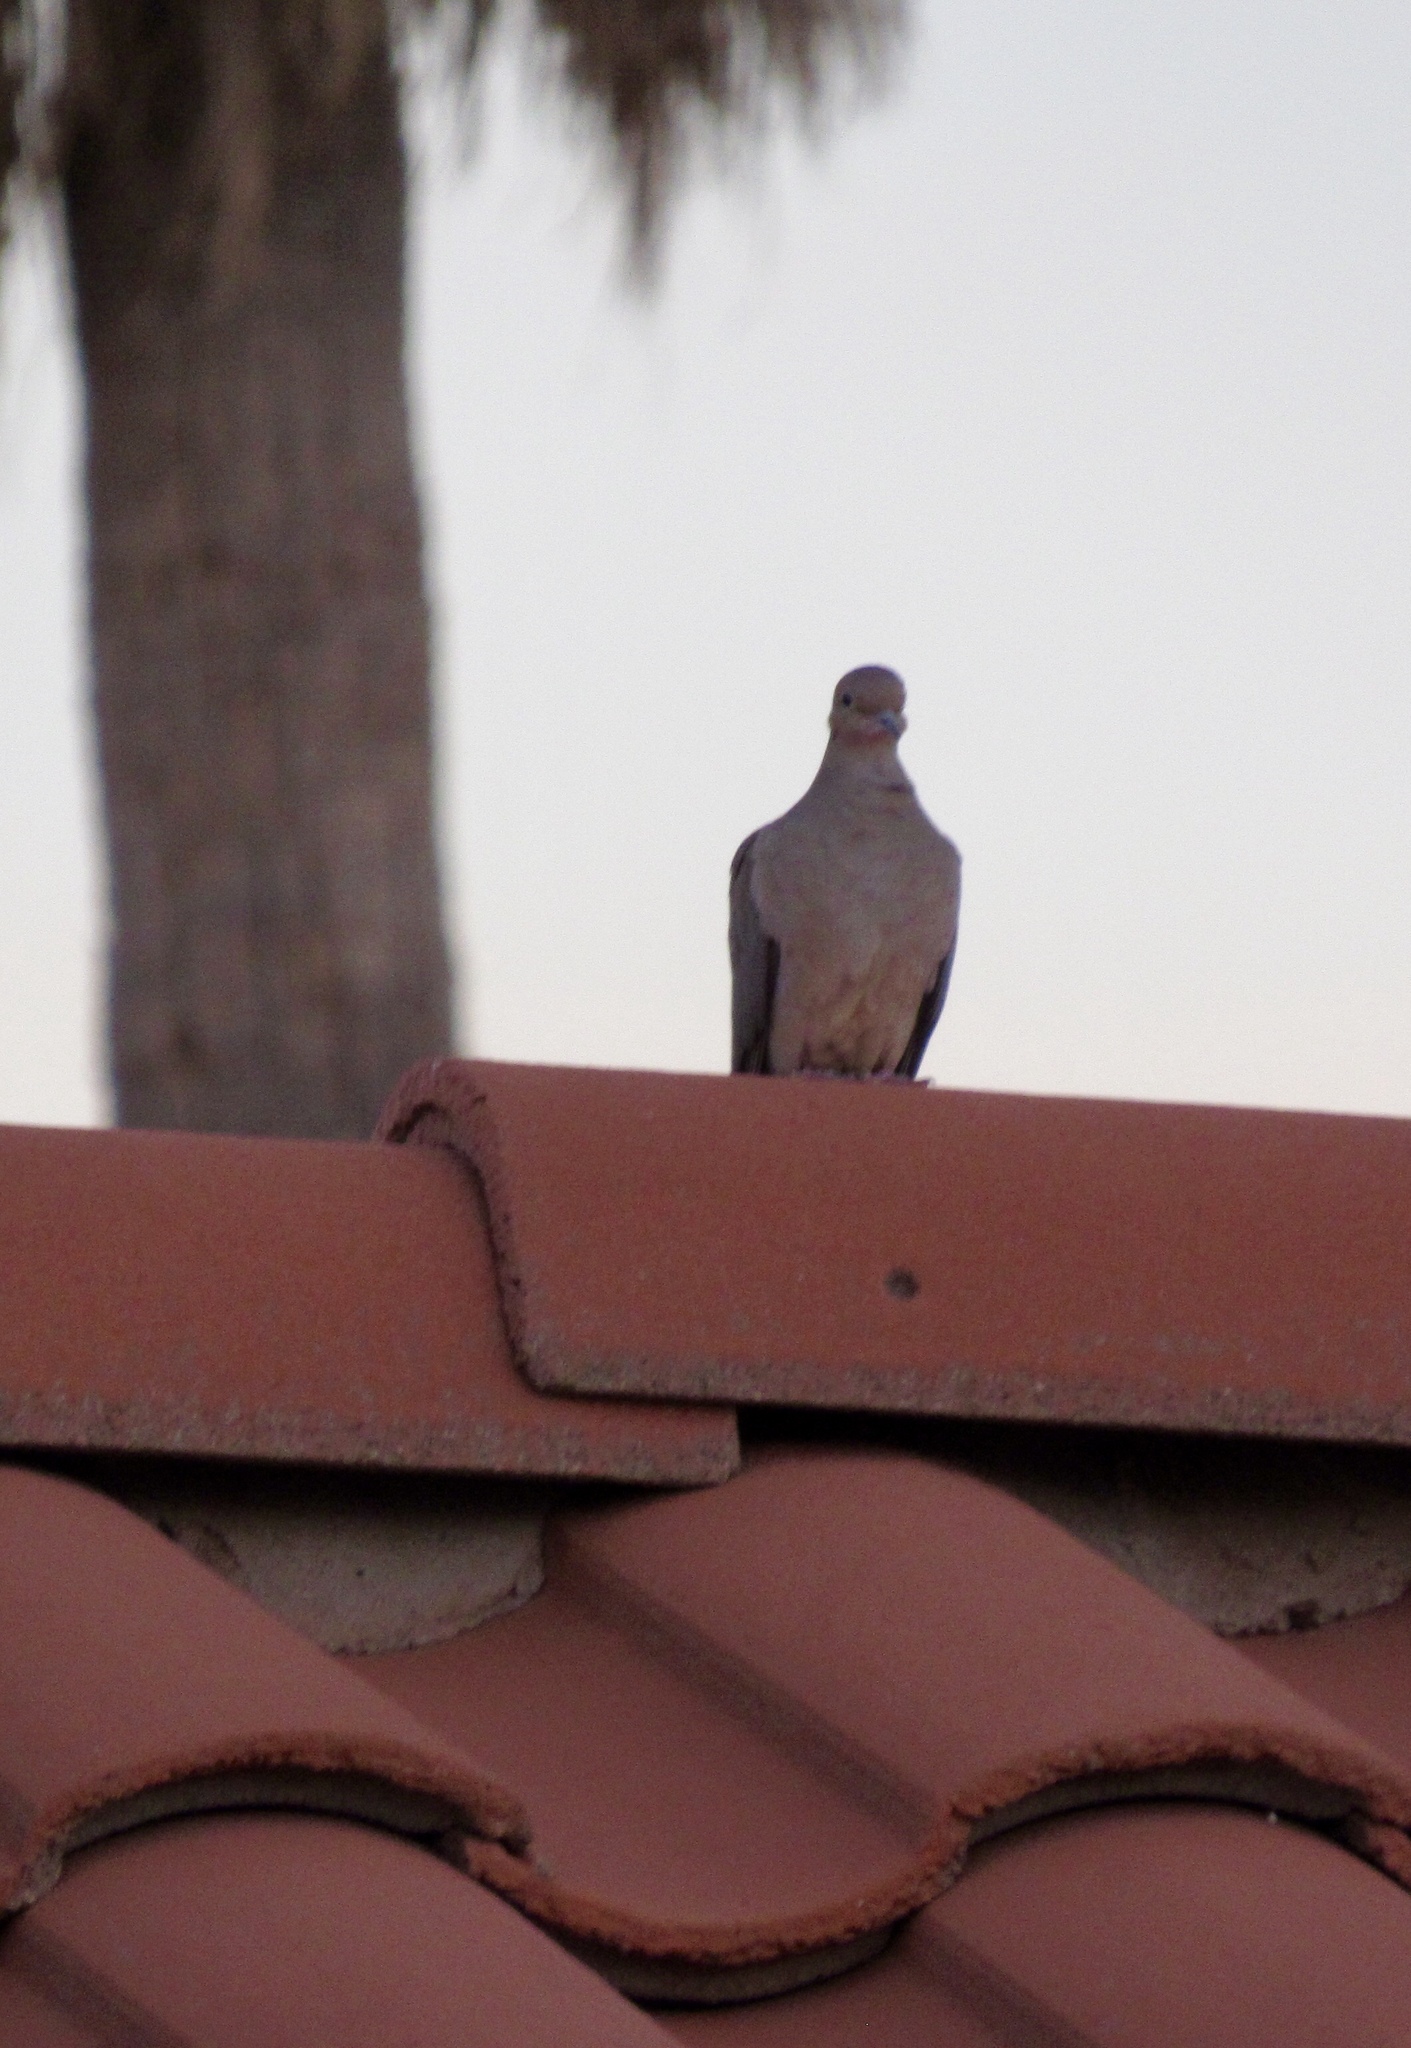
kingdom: Animalia
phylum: Chordata
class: Aves
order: Columbiformes
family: Columbidae
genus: Zenaida
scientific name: Zenaida macroura
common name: Mourning dove
